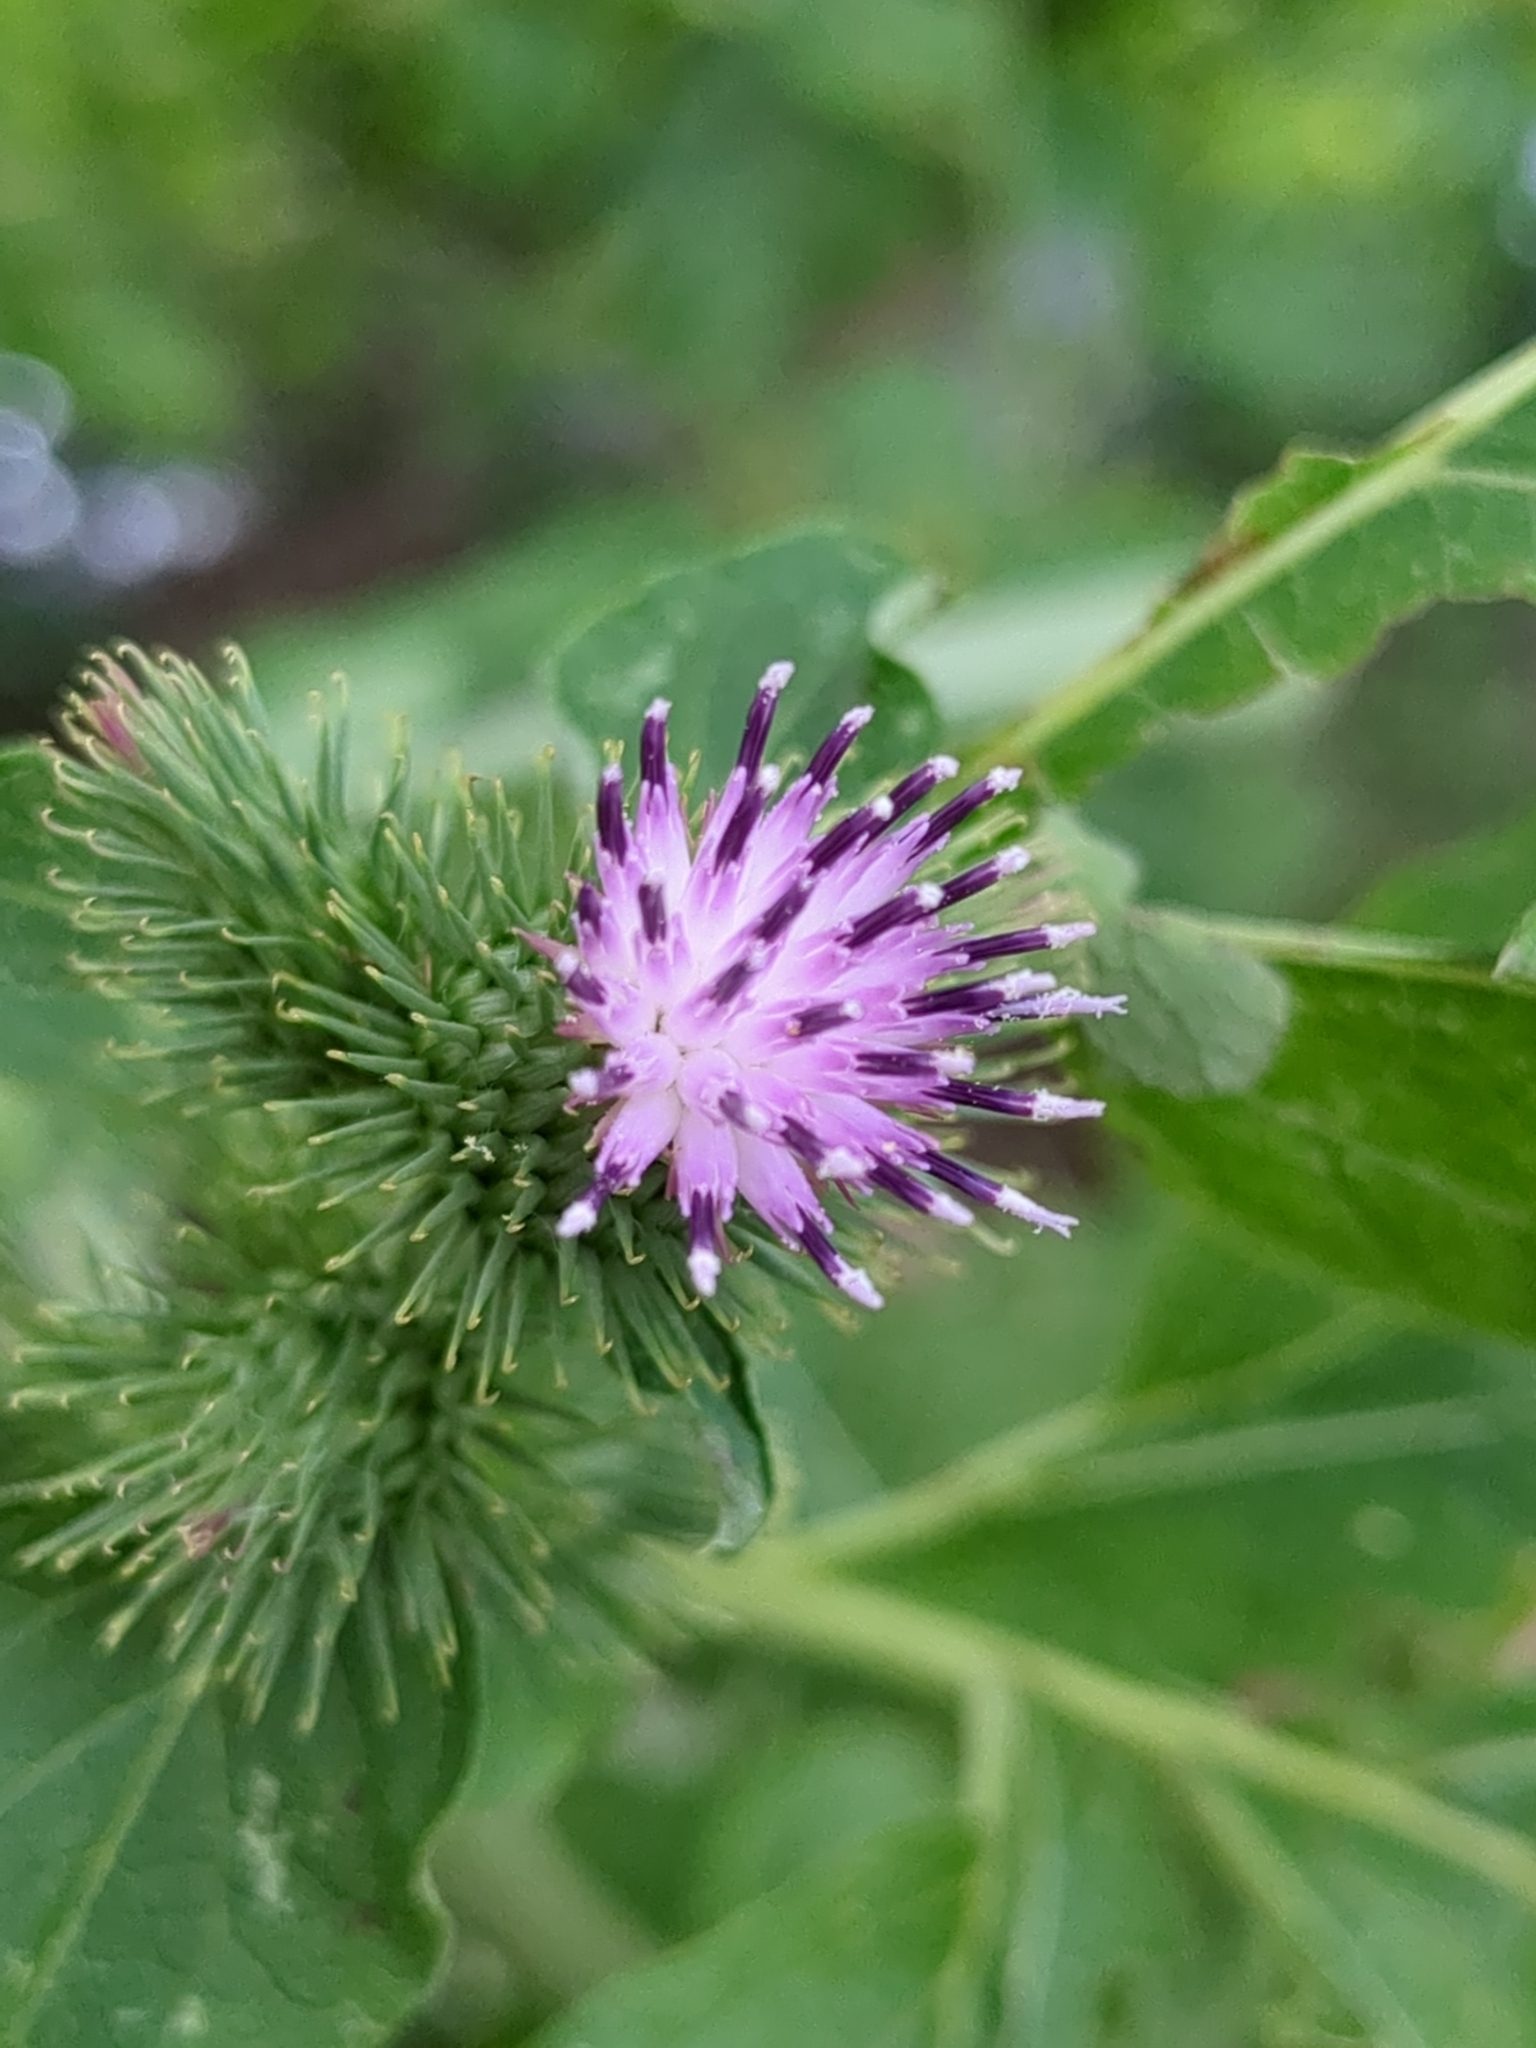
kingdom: Plantae
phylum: Tracheophyta
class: Magnoliopsida
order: Asterales
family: Asteraceae
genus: Arctium
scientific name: Arctium lappa
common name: Greater burdock
